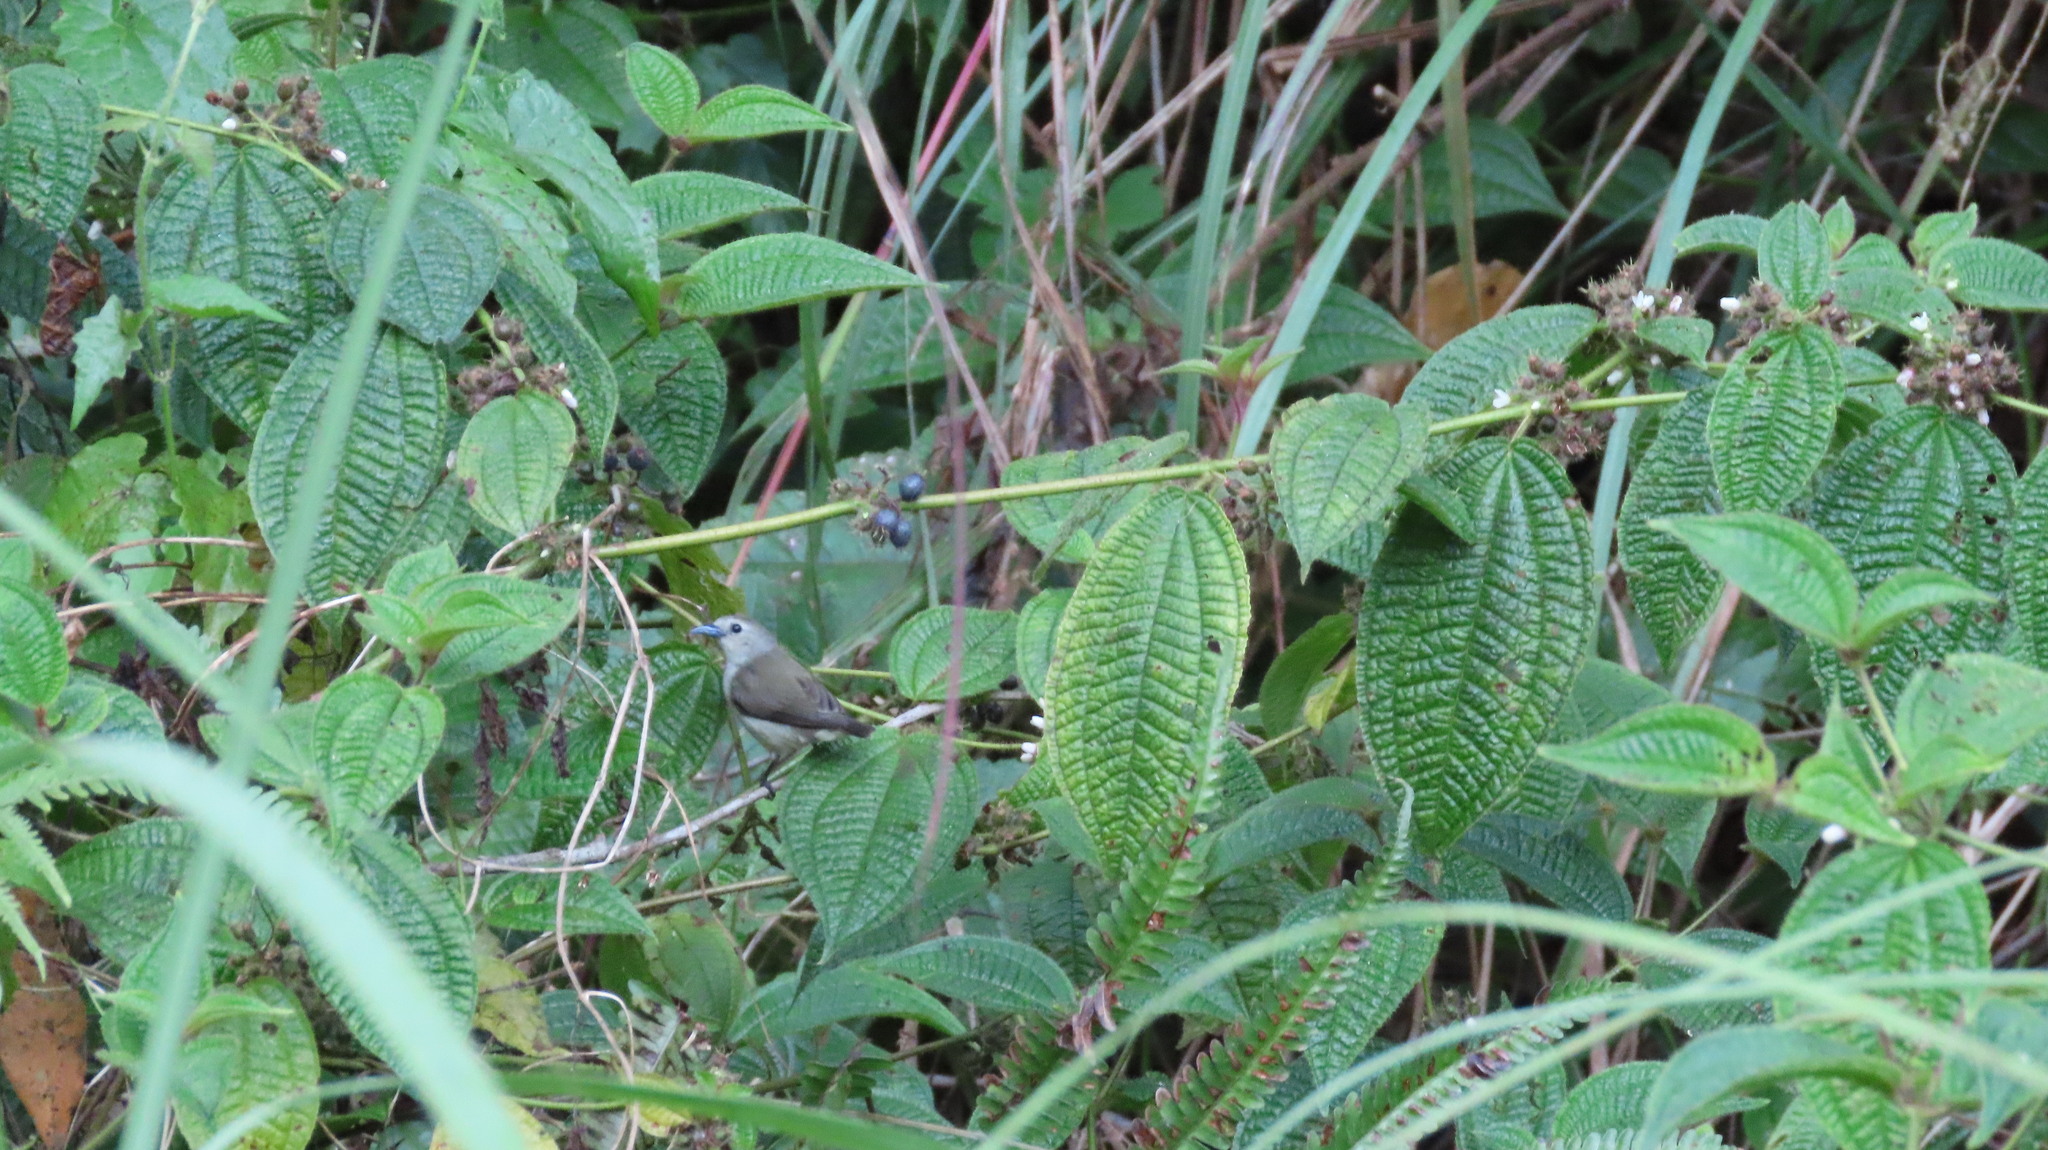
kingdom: Animalia
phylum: Chordata
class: Aves
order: Passeriformes
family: Dicaeidae
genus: Dicaeum
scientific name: Dicaeum concolor
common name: Nilgiri flowerpecker
